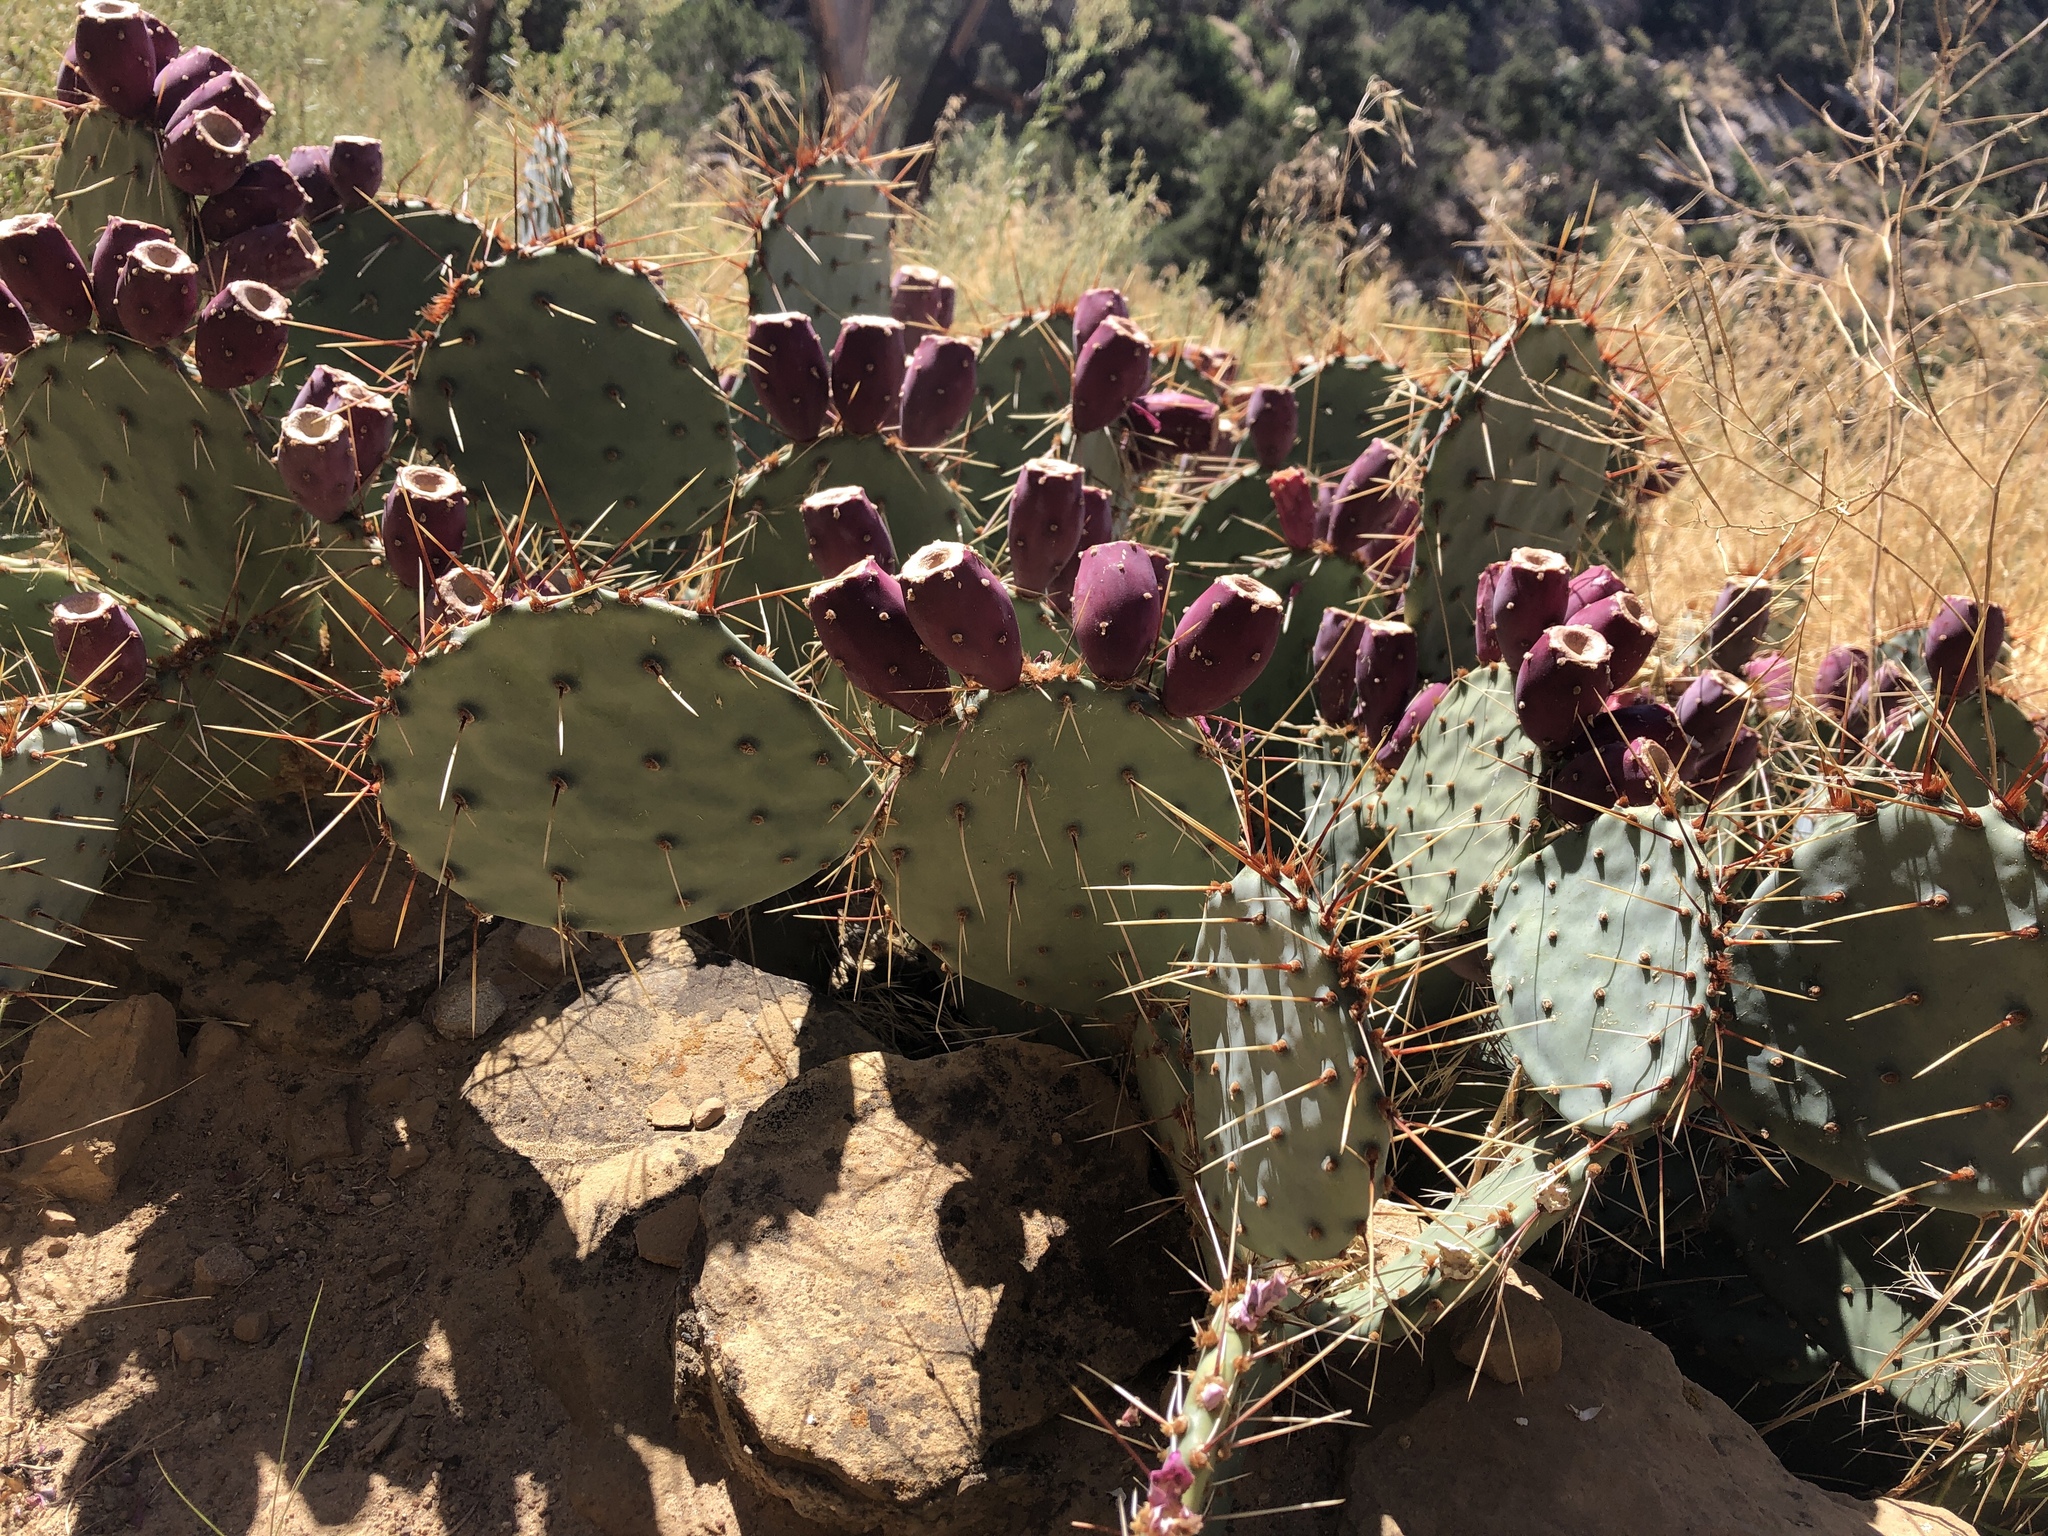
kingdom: Plantae
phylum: Tracheophyta
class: Magnoliopsida
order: Caryophyllales
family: Cactaceae
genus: Opuntia
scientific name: Opuntia phaeacantha
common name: New mexico prickly-pear
